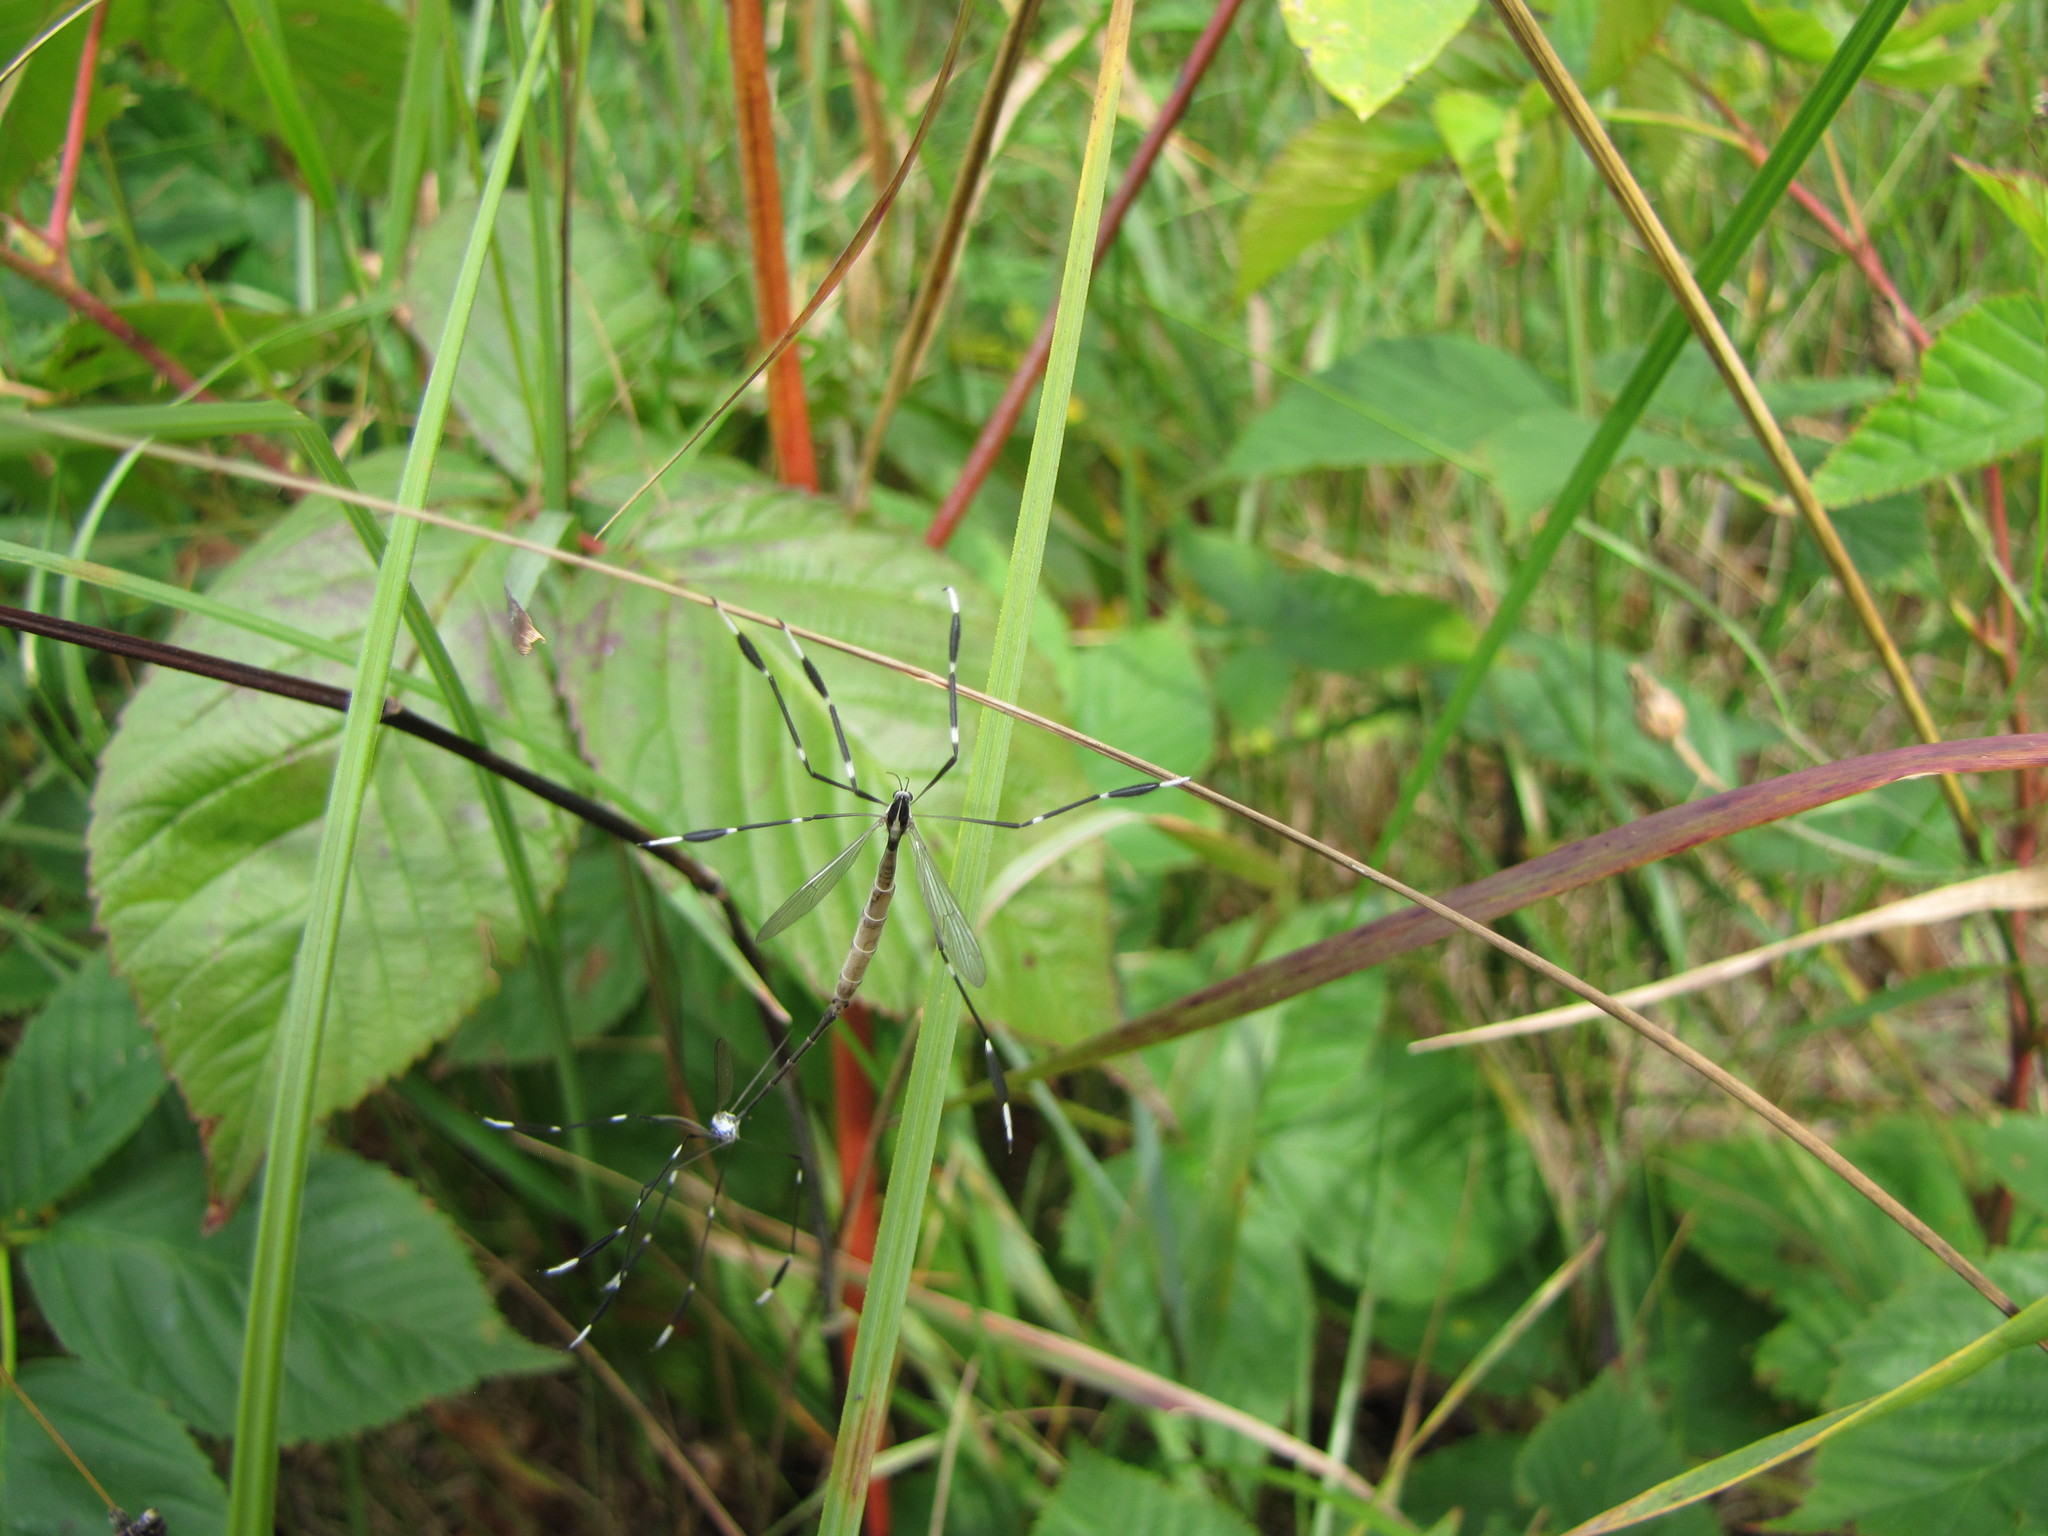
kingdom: Animalia
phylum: Arthropoda
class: Insecta
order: Diptera
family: Ptychopteridae
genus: Bittacomorpha
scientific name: Bittacomorpha clavipes
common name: Eastern phantom crane fly
